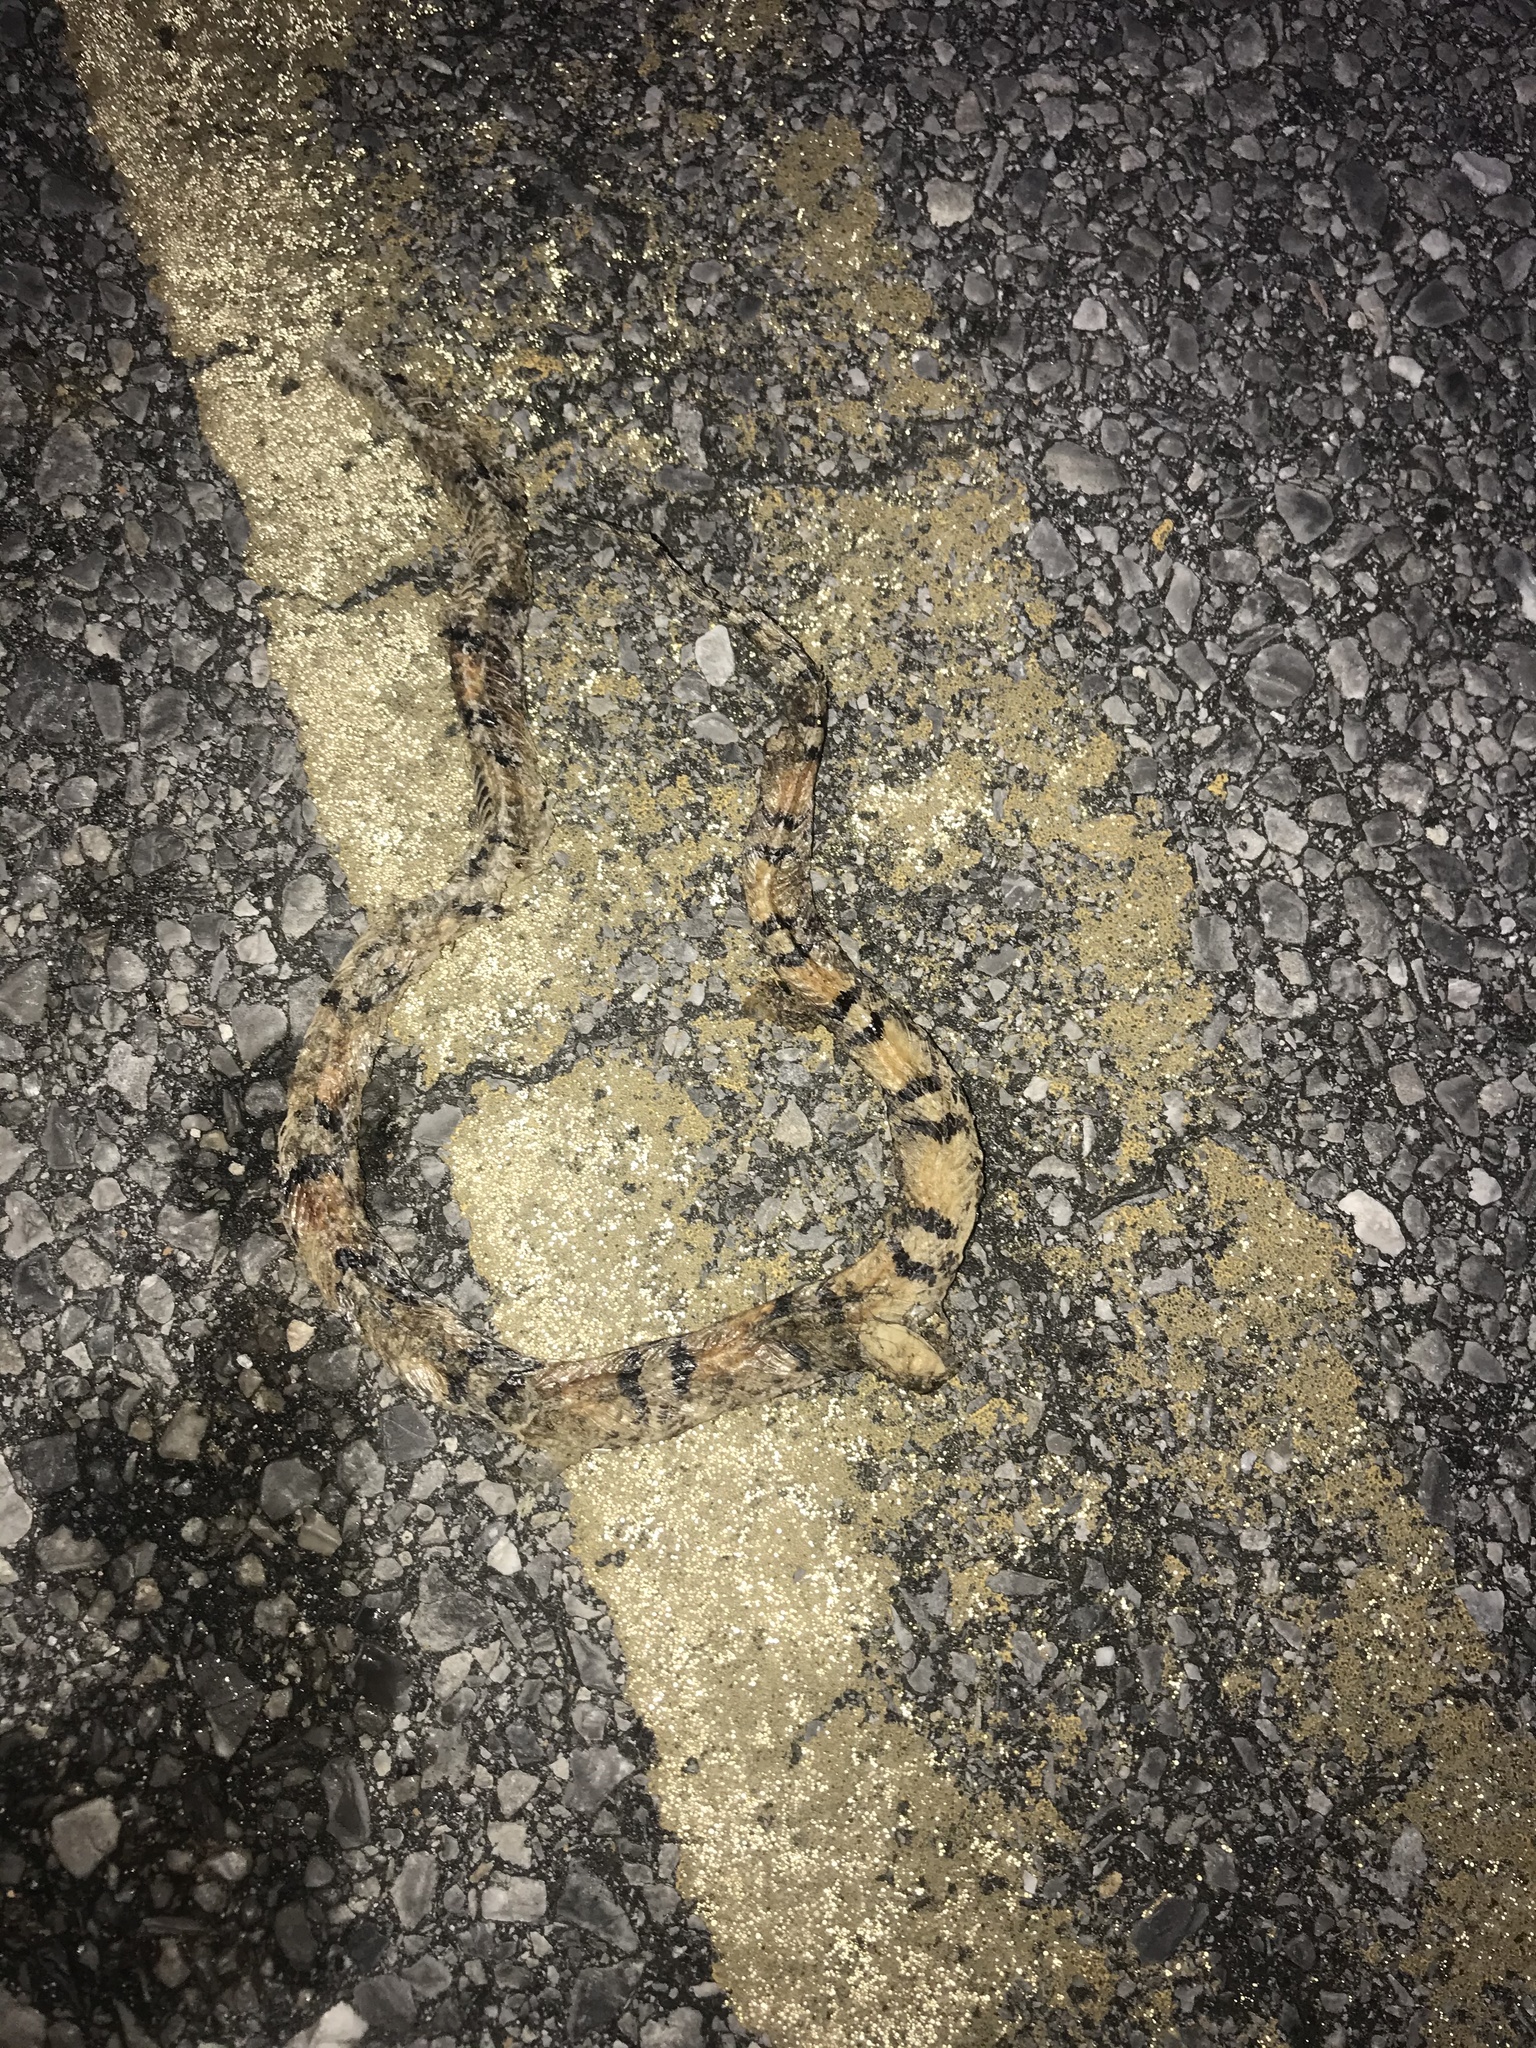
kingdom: Animalia
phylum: Chordata
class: Squamata
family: Colubridae
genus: Cemophora
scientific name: Cemophora coccinea
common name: Scarlet snake
